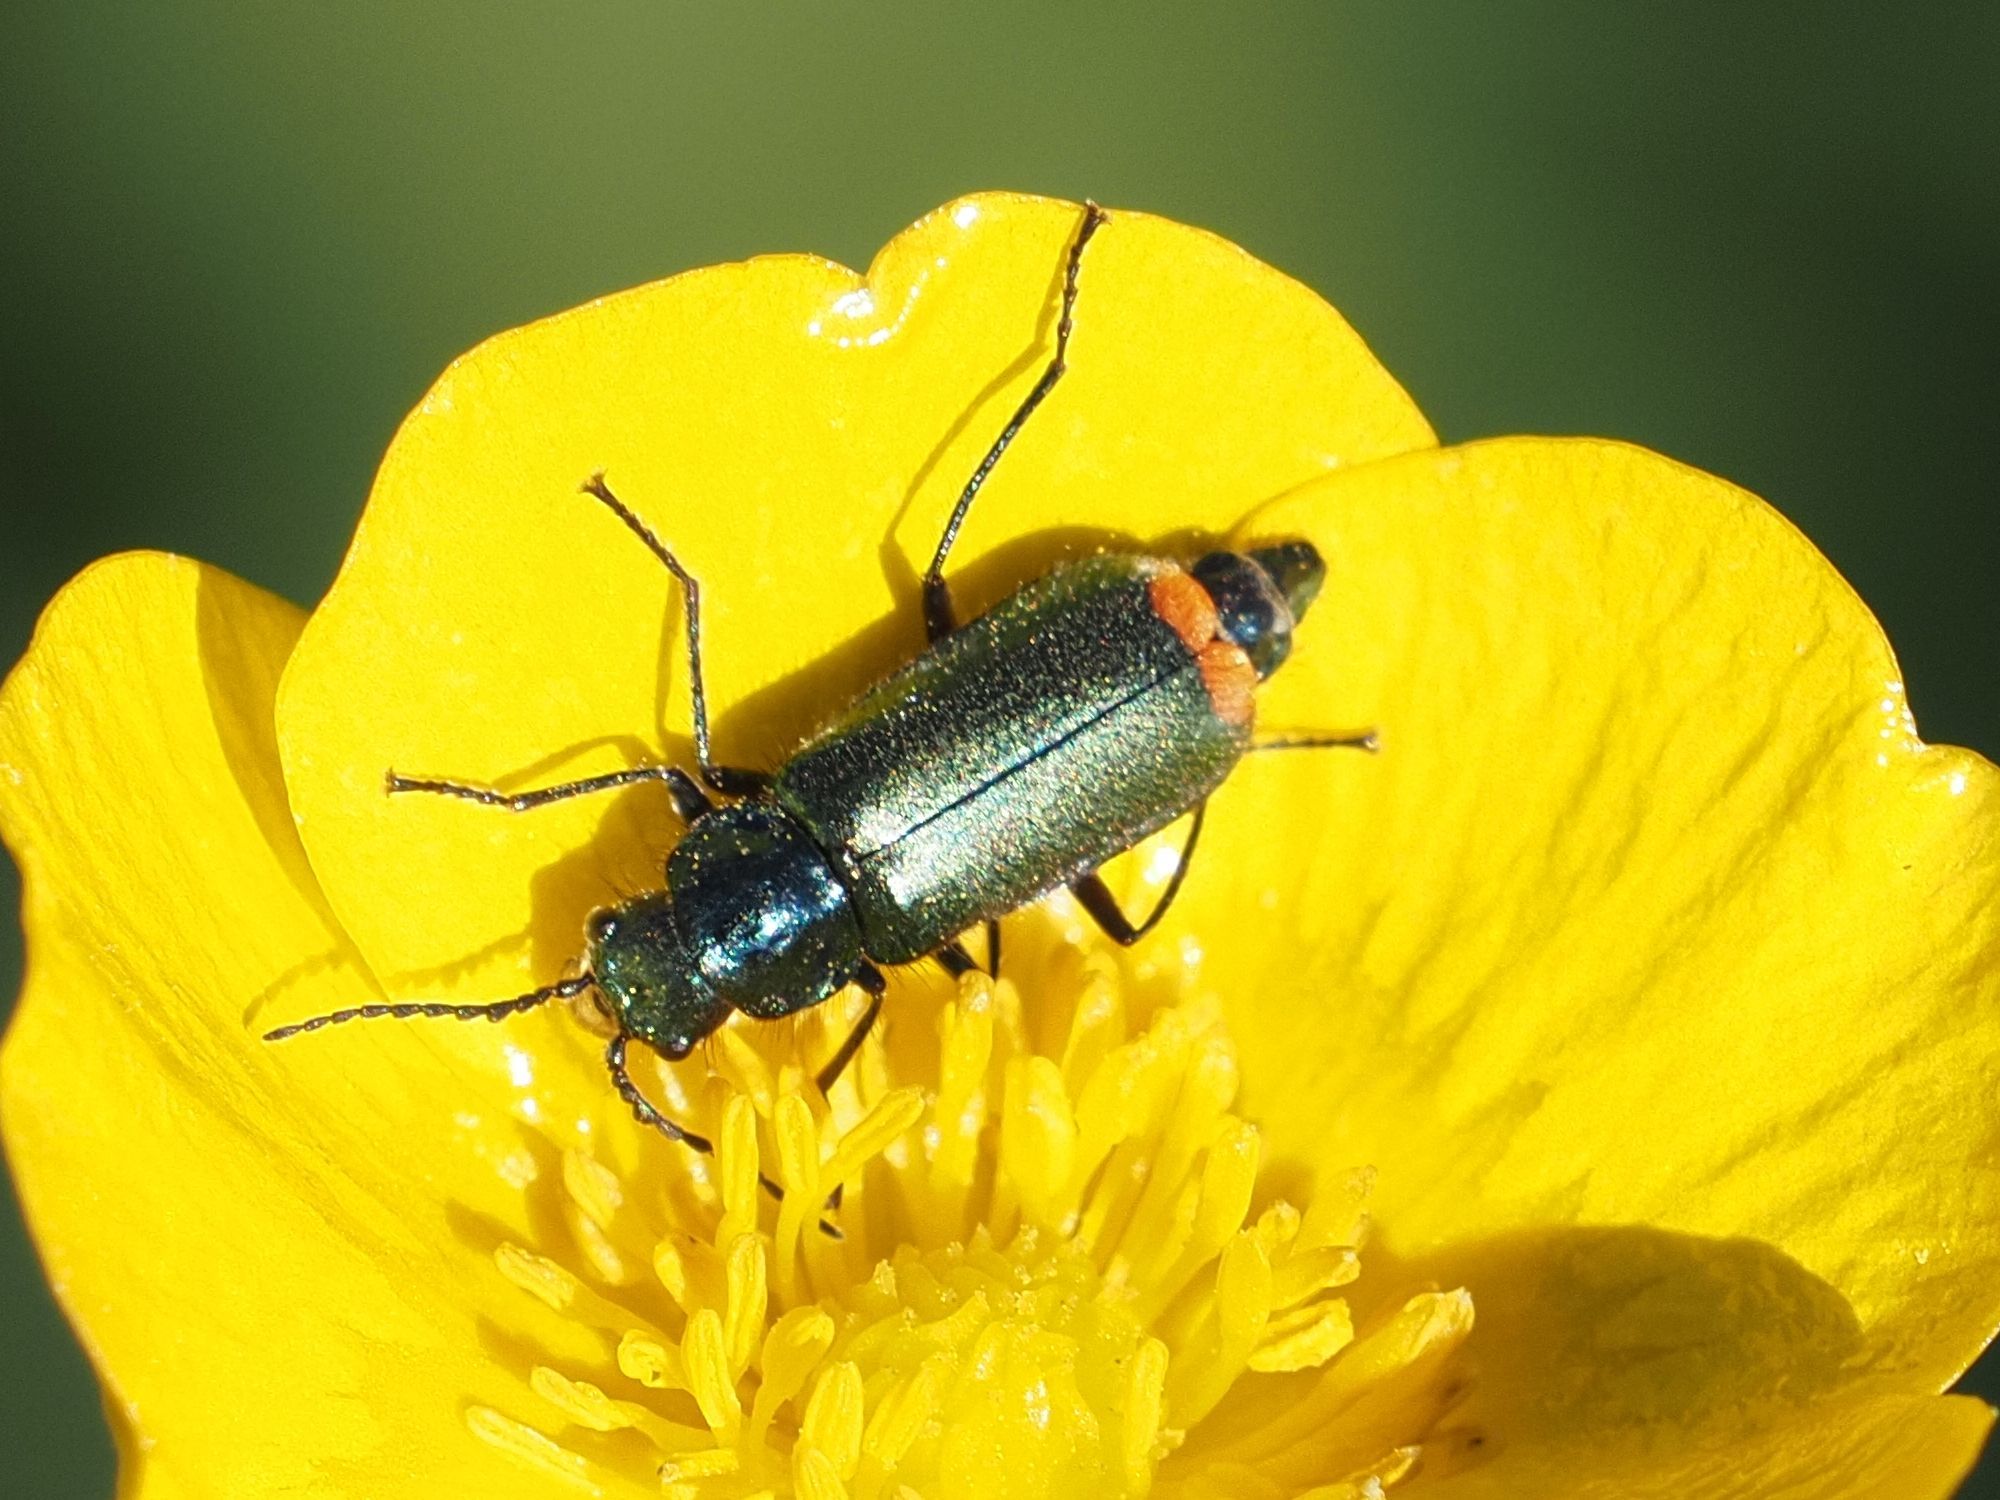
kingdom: Animalia
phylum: Arthropoda
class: Insecta
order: Coleoptera
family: Melyridae
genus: Malachius
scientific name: Malachius bipustulatus
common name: Malachite beetle
